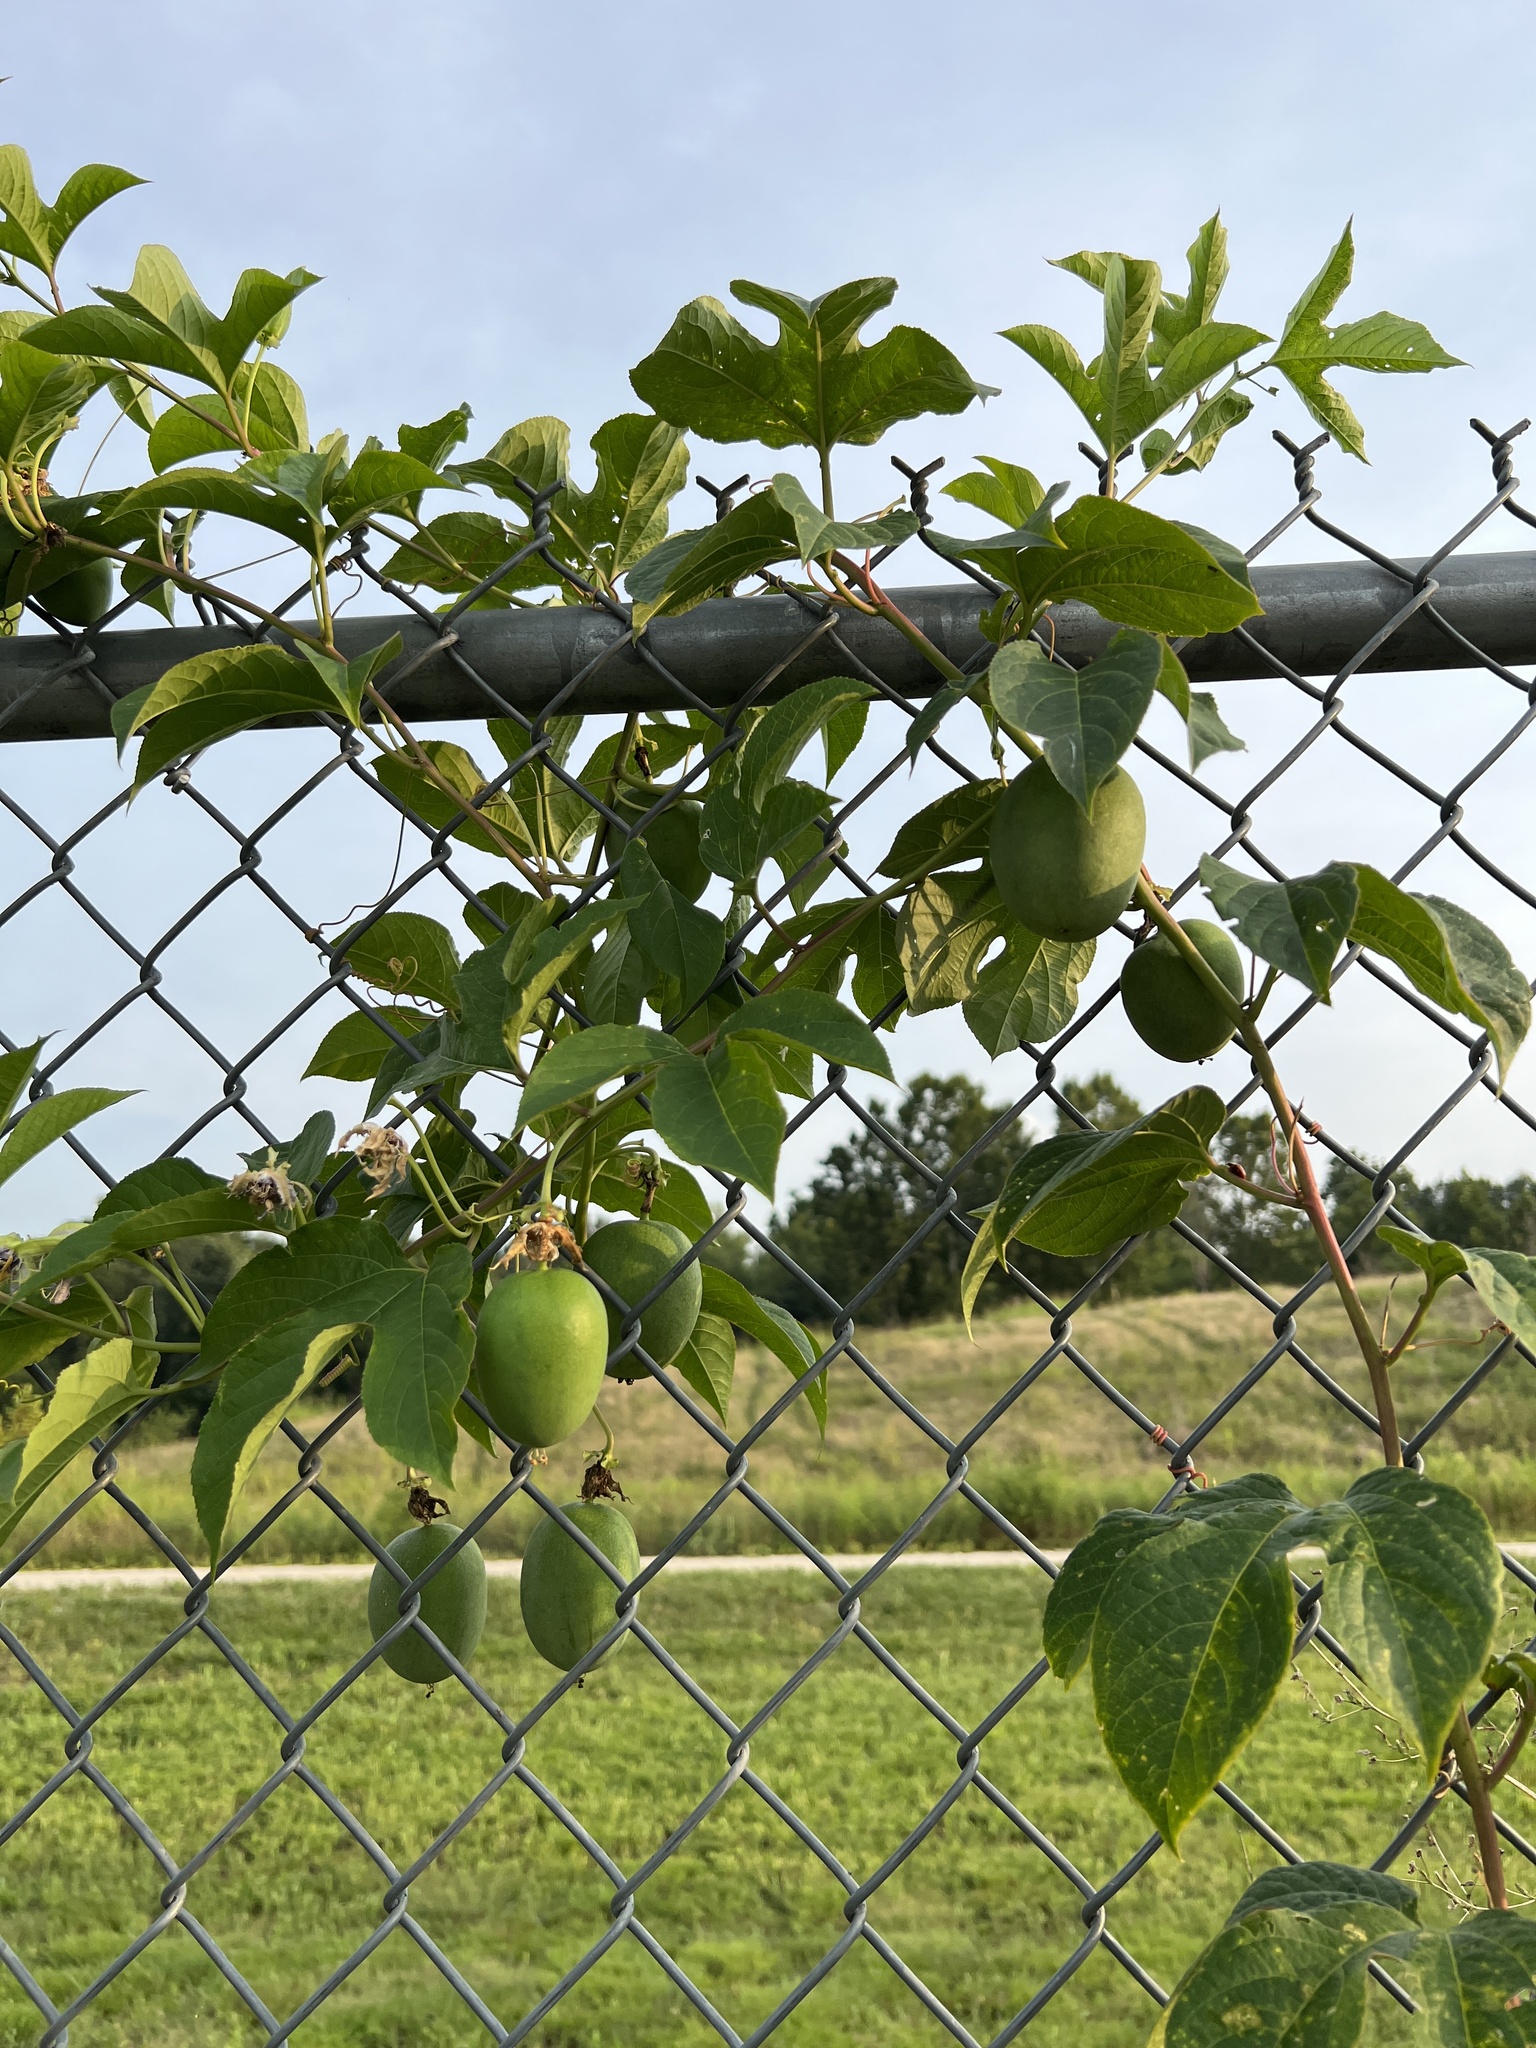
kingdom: Plantae
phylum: Tracheophyta
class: Magnoliopsida
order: Malpighiales
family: Passifloraceae
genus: Passiflora
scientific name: Passiflora incarnata
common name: Apricot-vine
